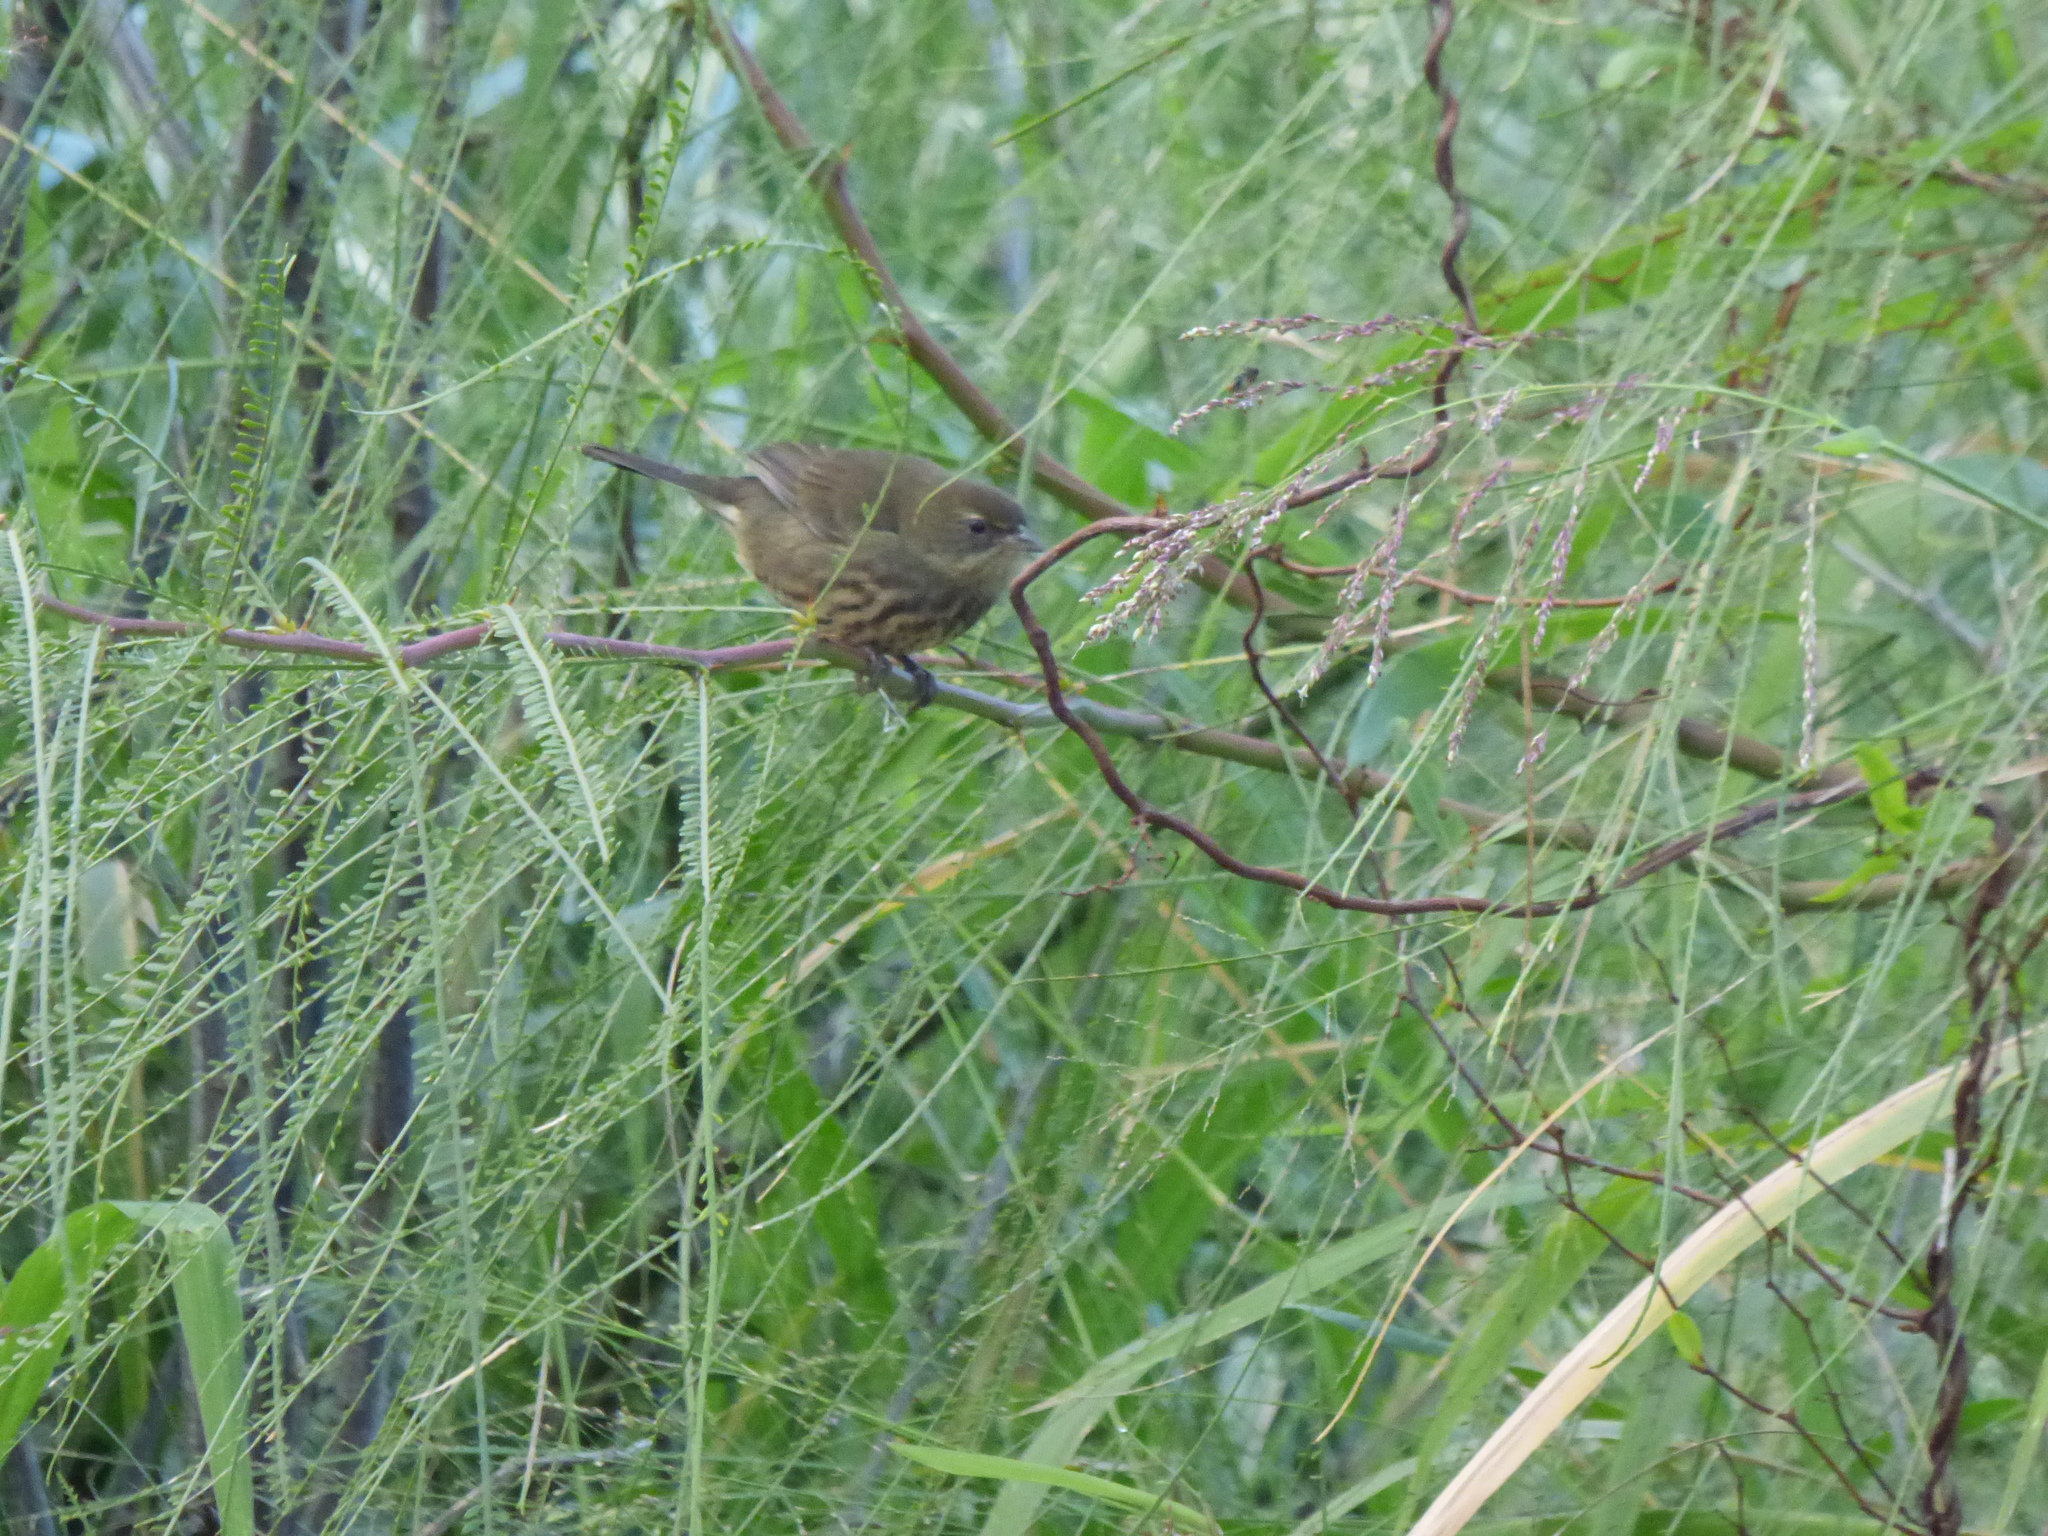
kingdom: Animalia
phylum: Chordata
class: Aves
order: Passeriformes
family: Thraupidae
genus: Poospiza
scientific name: Poospiza nigrorufa
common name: Black-and-rufous warbling finch
